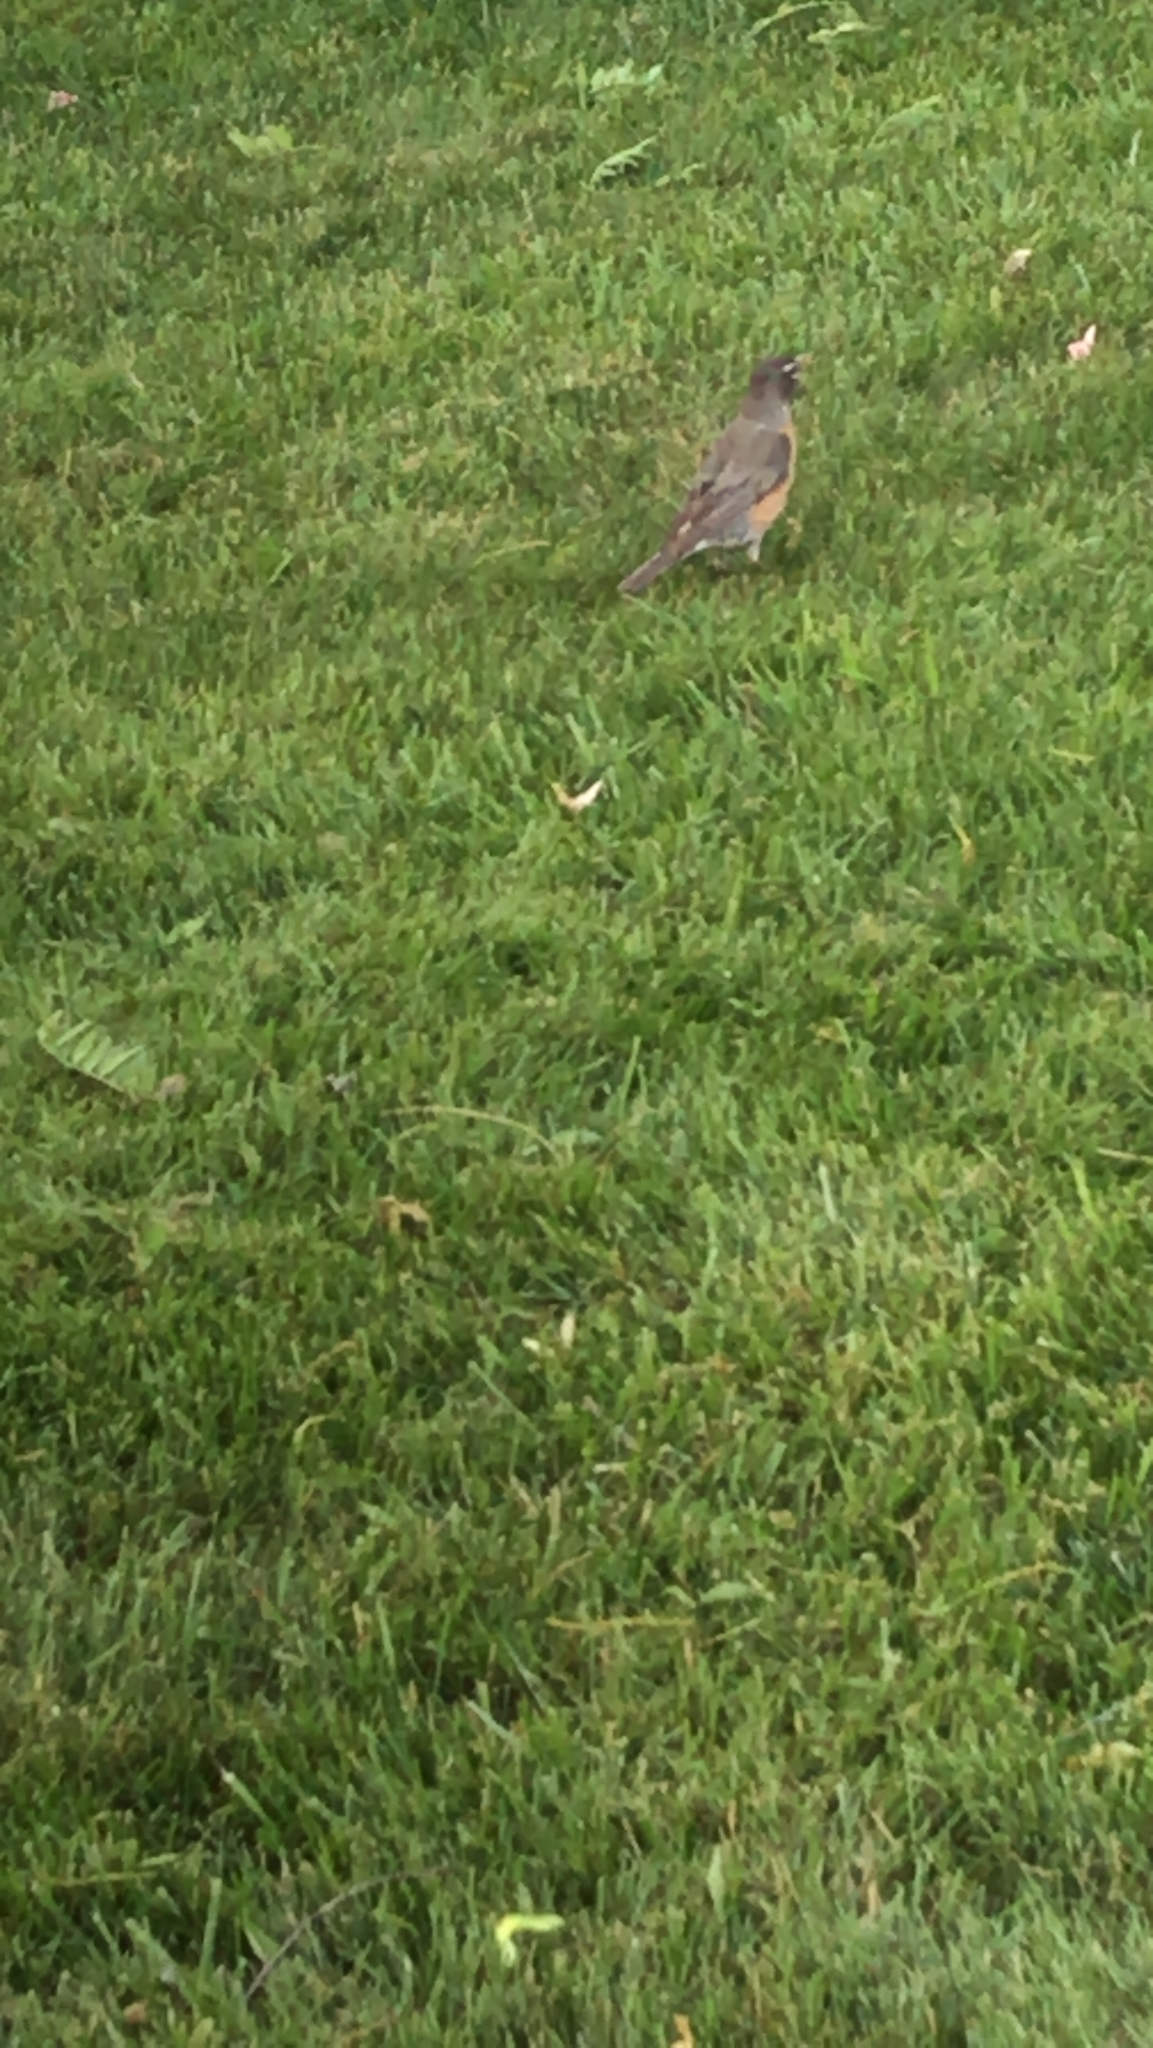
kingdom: Animalia
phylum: Chordata
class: Aves
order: Passeriformes
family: Turdidae
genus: Turdus
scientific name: Turdus migratorius
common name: American robin
